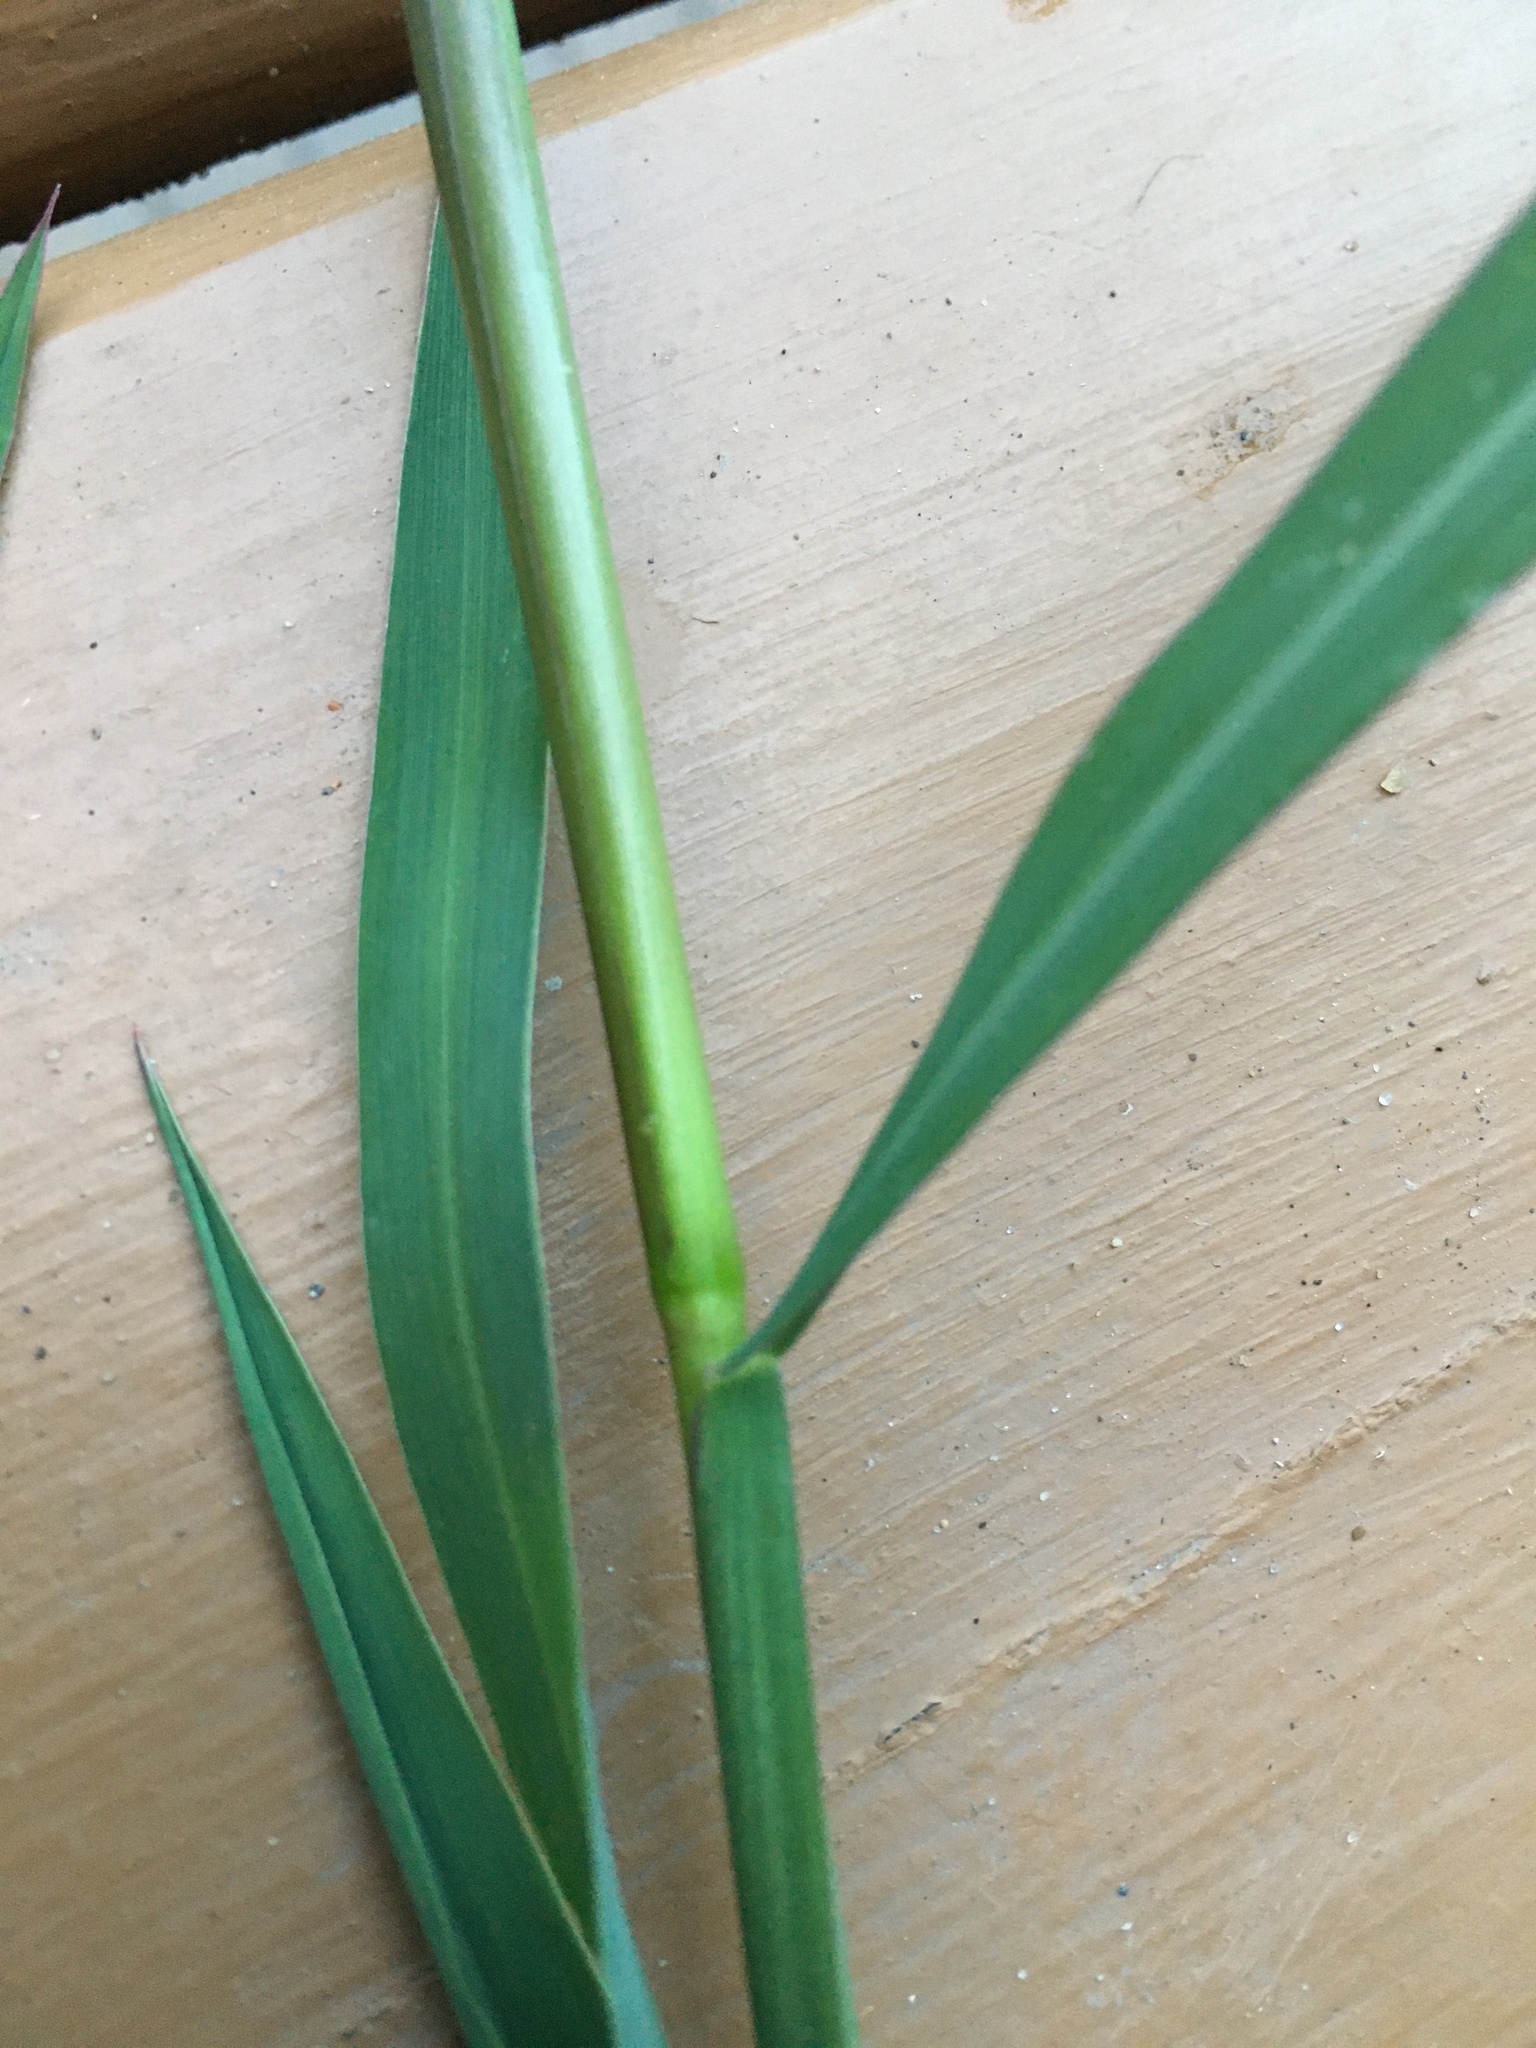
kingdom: Plantae
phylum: Tracheophyta
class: Liliopsida
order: Poales
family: Poaceae
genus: Echinochloa
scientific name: Echinochloa muricata
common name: American barnyard grass
